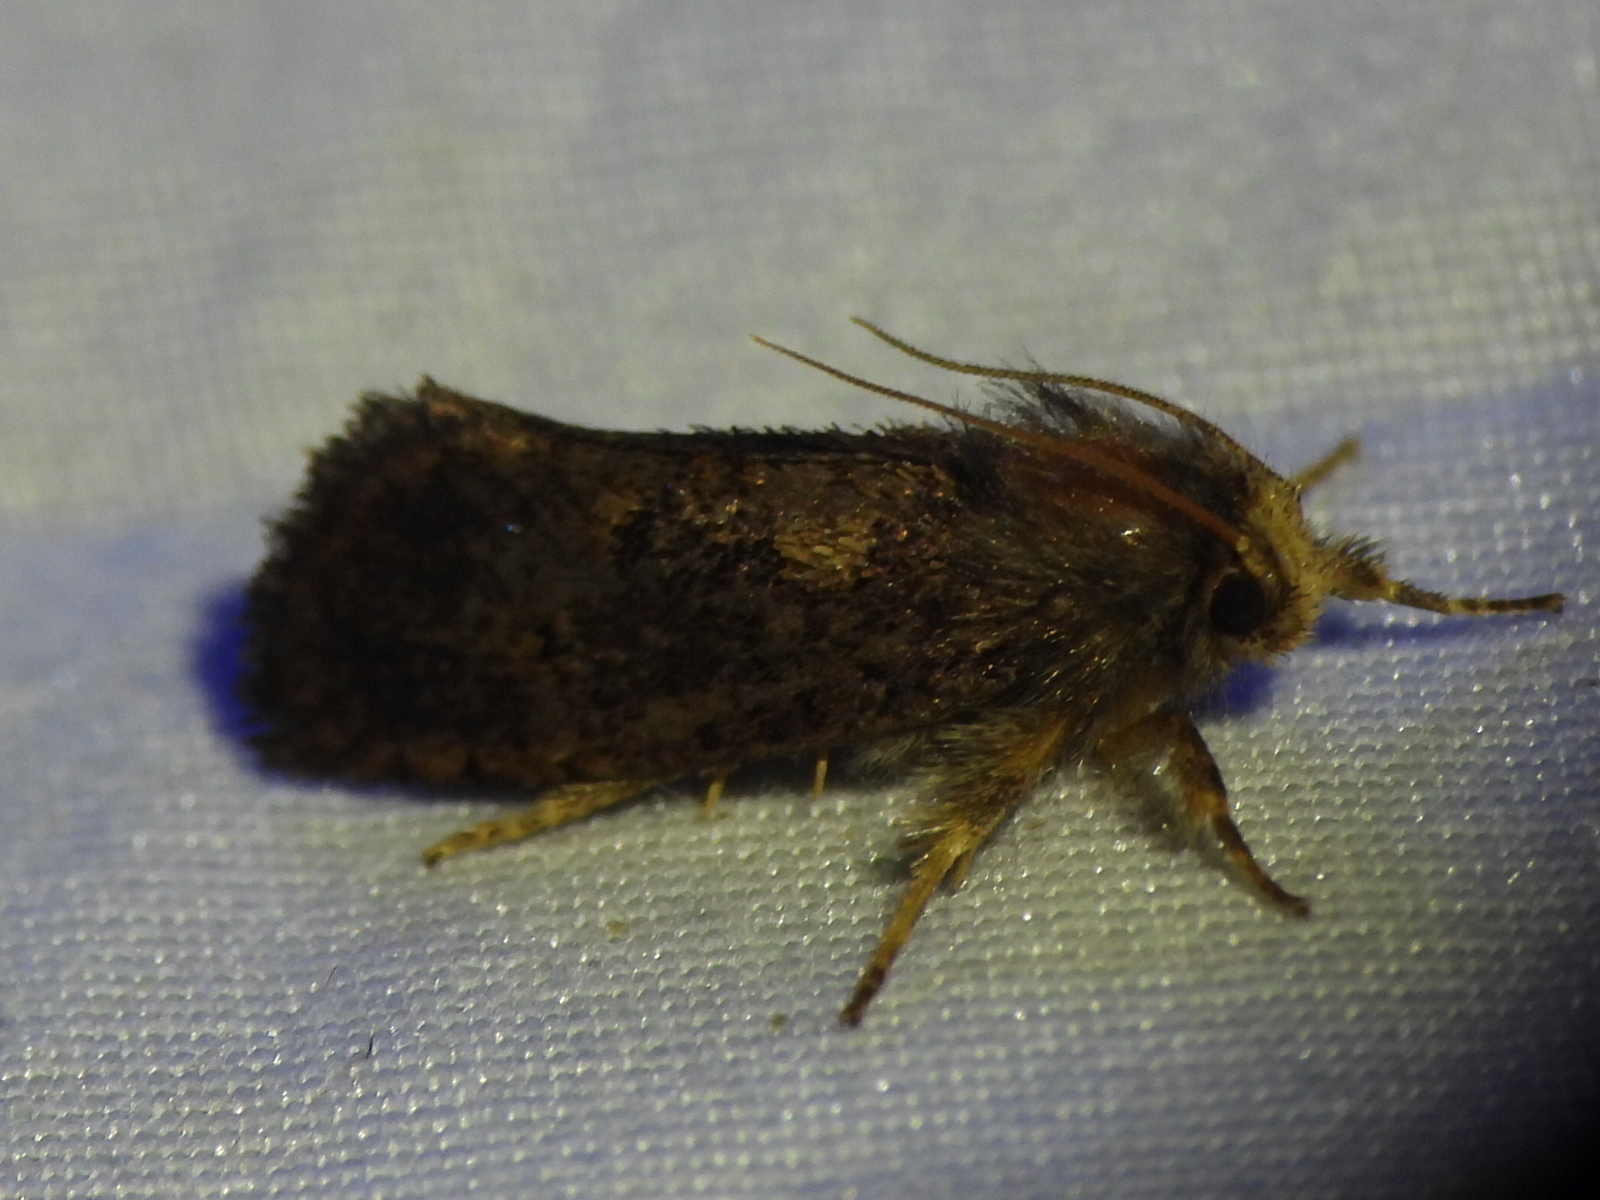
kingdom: Animalia
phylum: Arthropoda
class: Insecta
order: Lepidoptera
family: Tineidae
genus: Acrolophus
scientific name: Acrolophus mora
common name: Dark acrolophus
